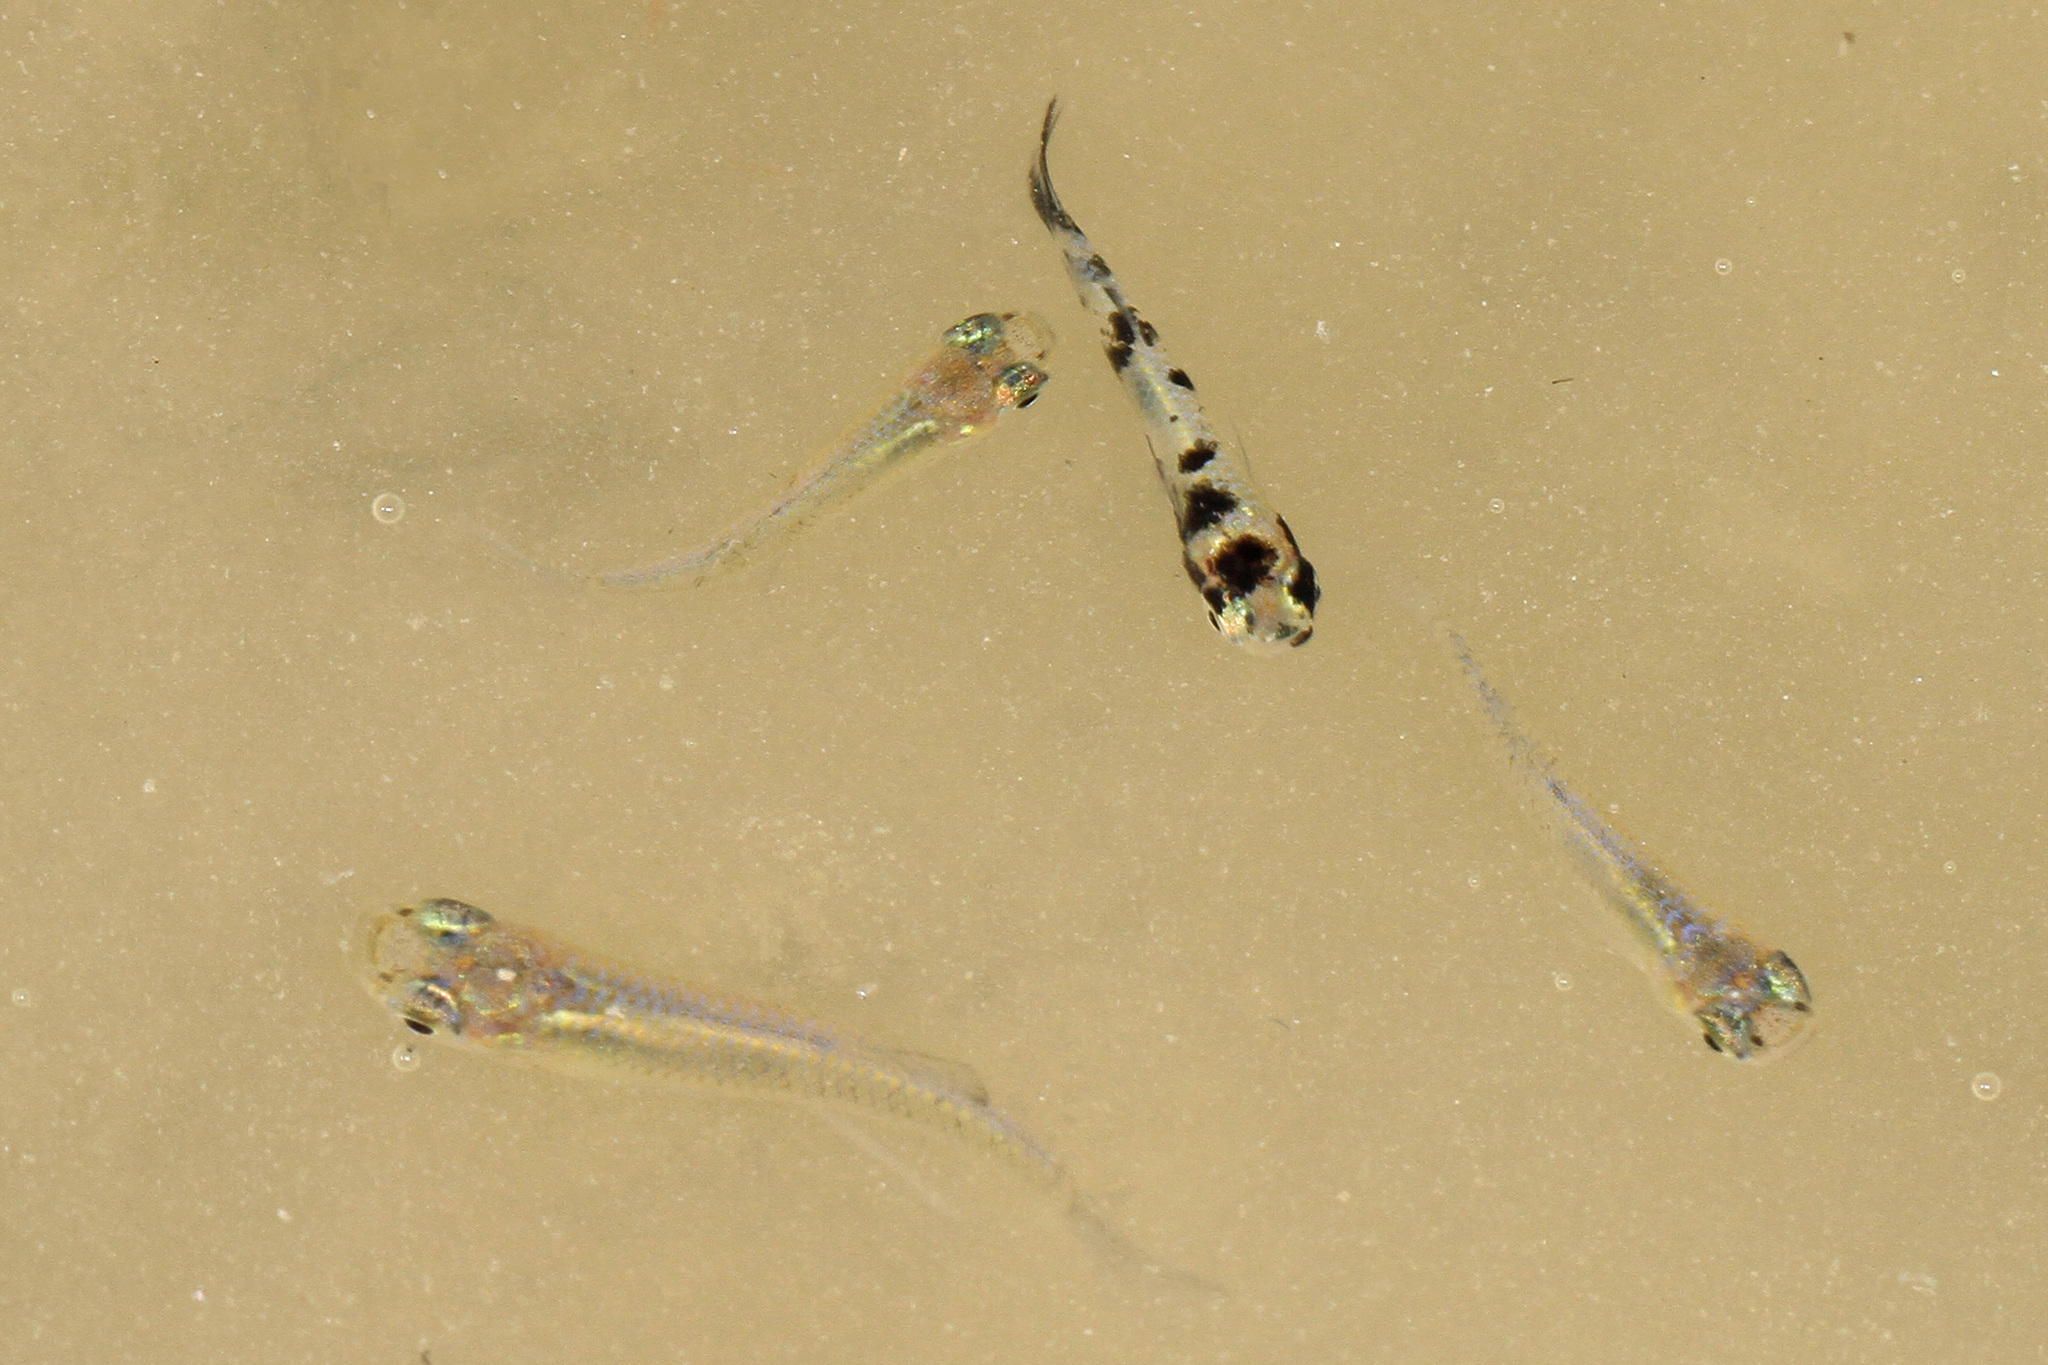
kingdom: Animalia
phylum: Chordata
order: Cyprinodontiformes
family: Poeciliidae
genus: Gambusia
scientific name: Gambusia holbrooki
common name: Eastern mosquitofish
